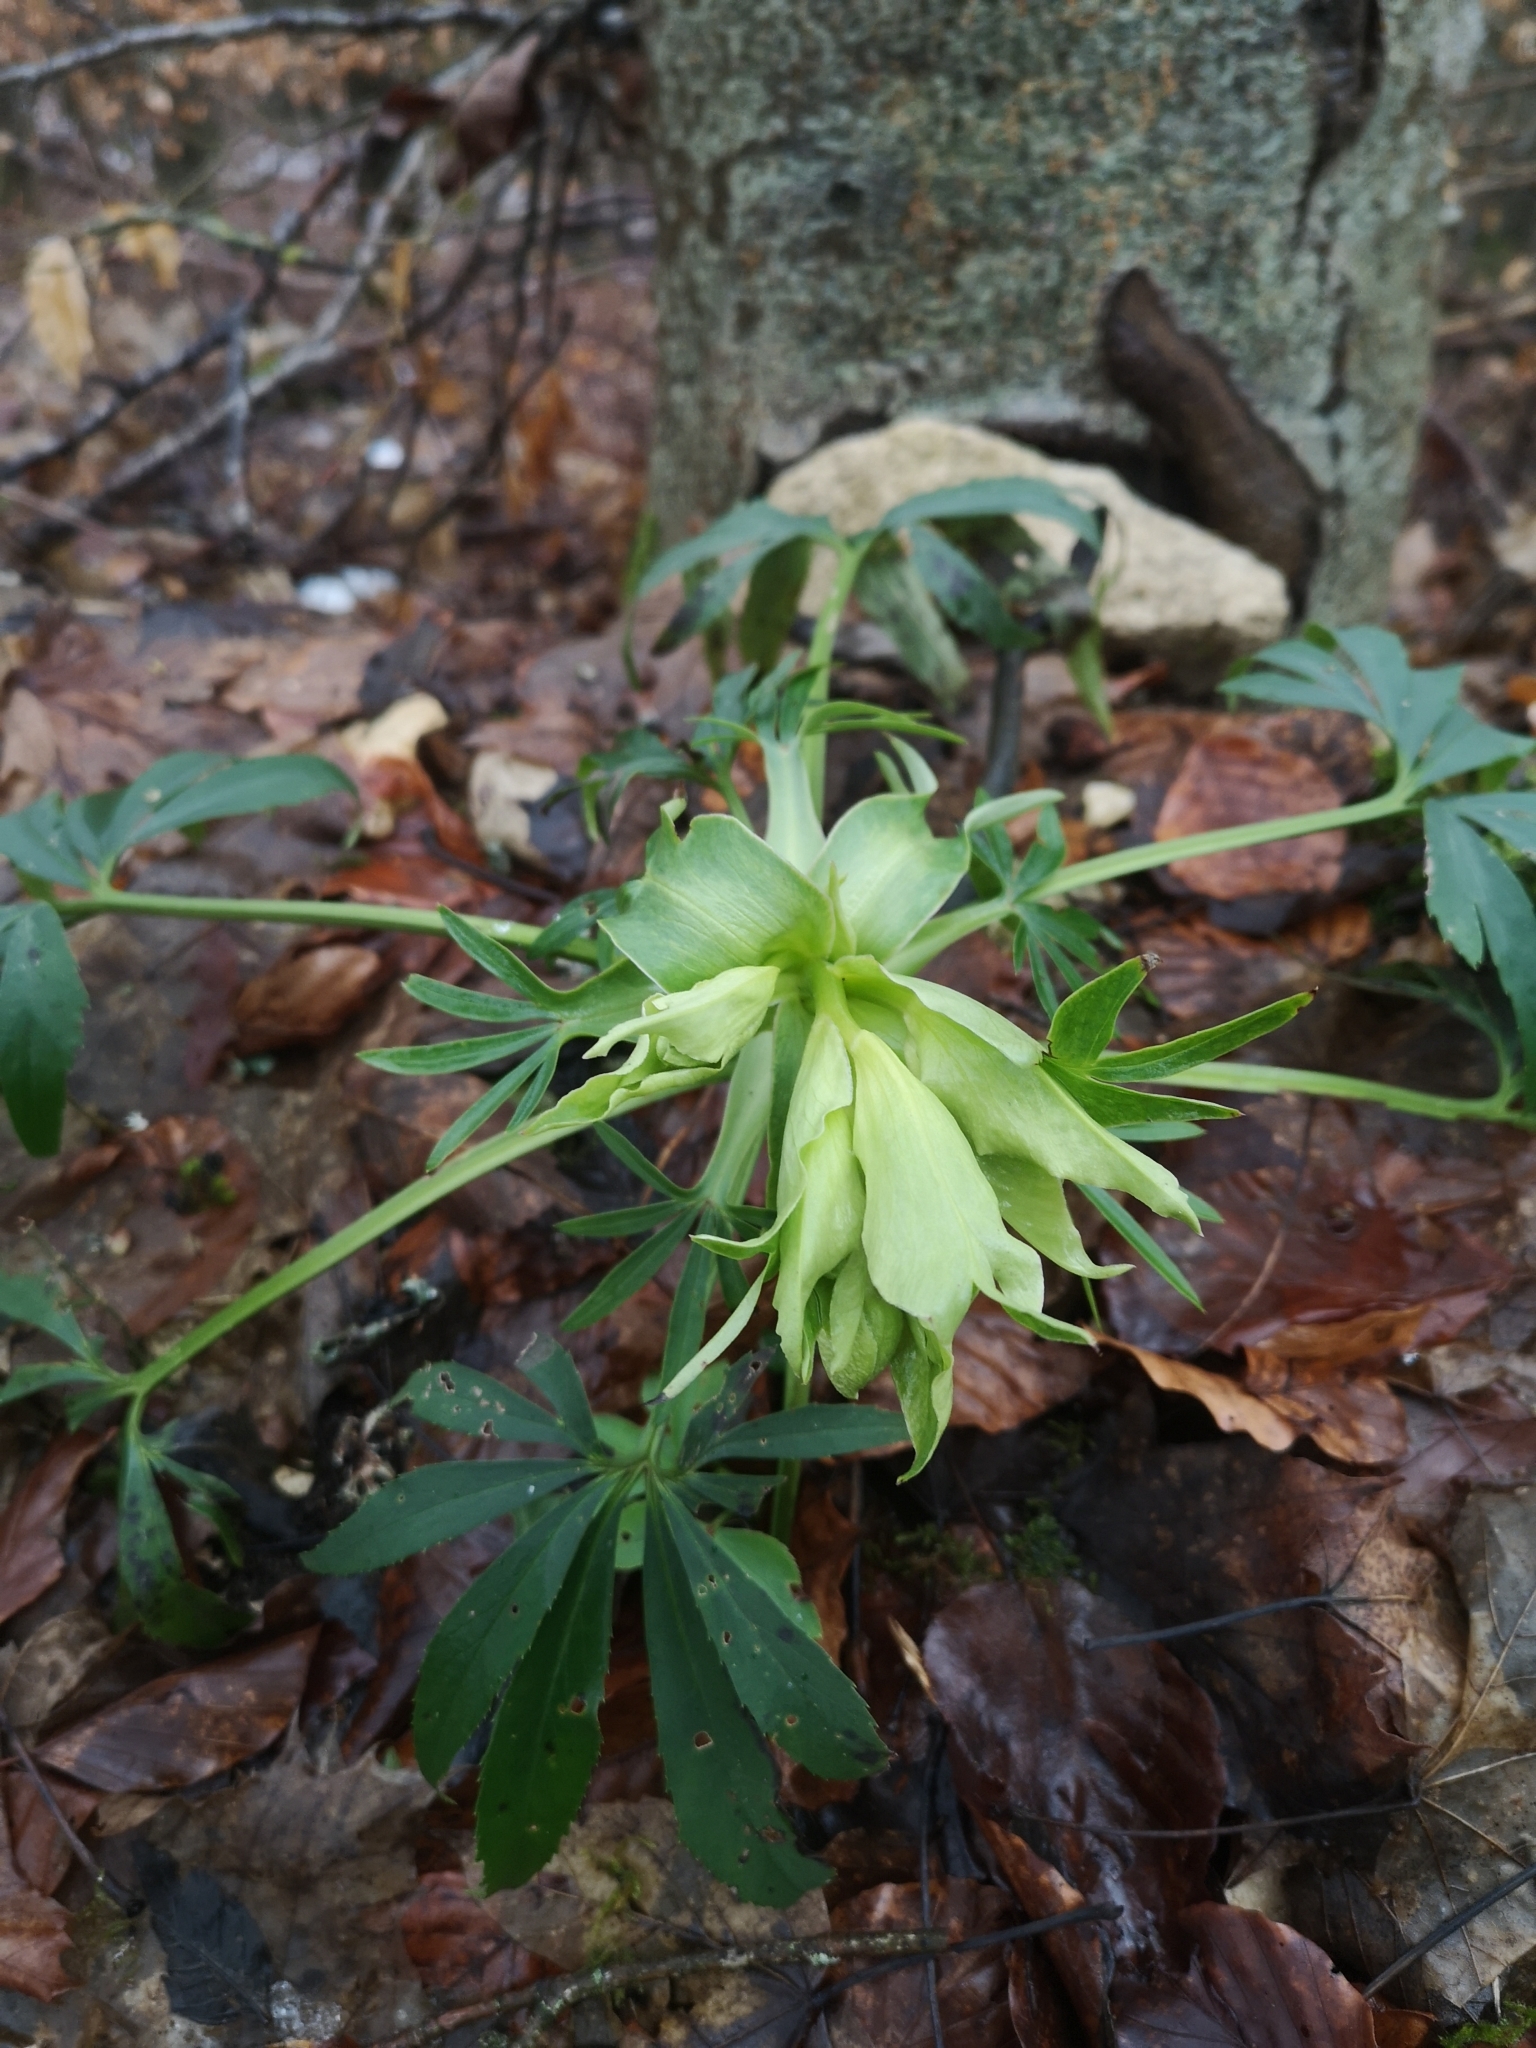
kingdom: Plantae
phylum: Tracheophyta
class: Magnoliopsida
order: Ranunculales
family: Ranunculaceae
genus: Helleborus
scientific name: Helleborus foetidus
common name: Stinking hellebore
